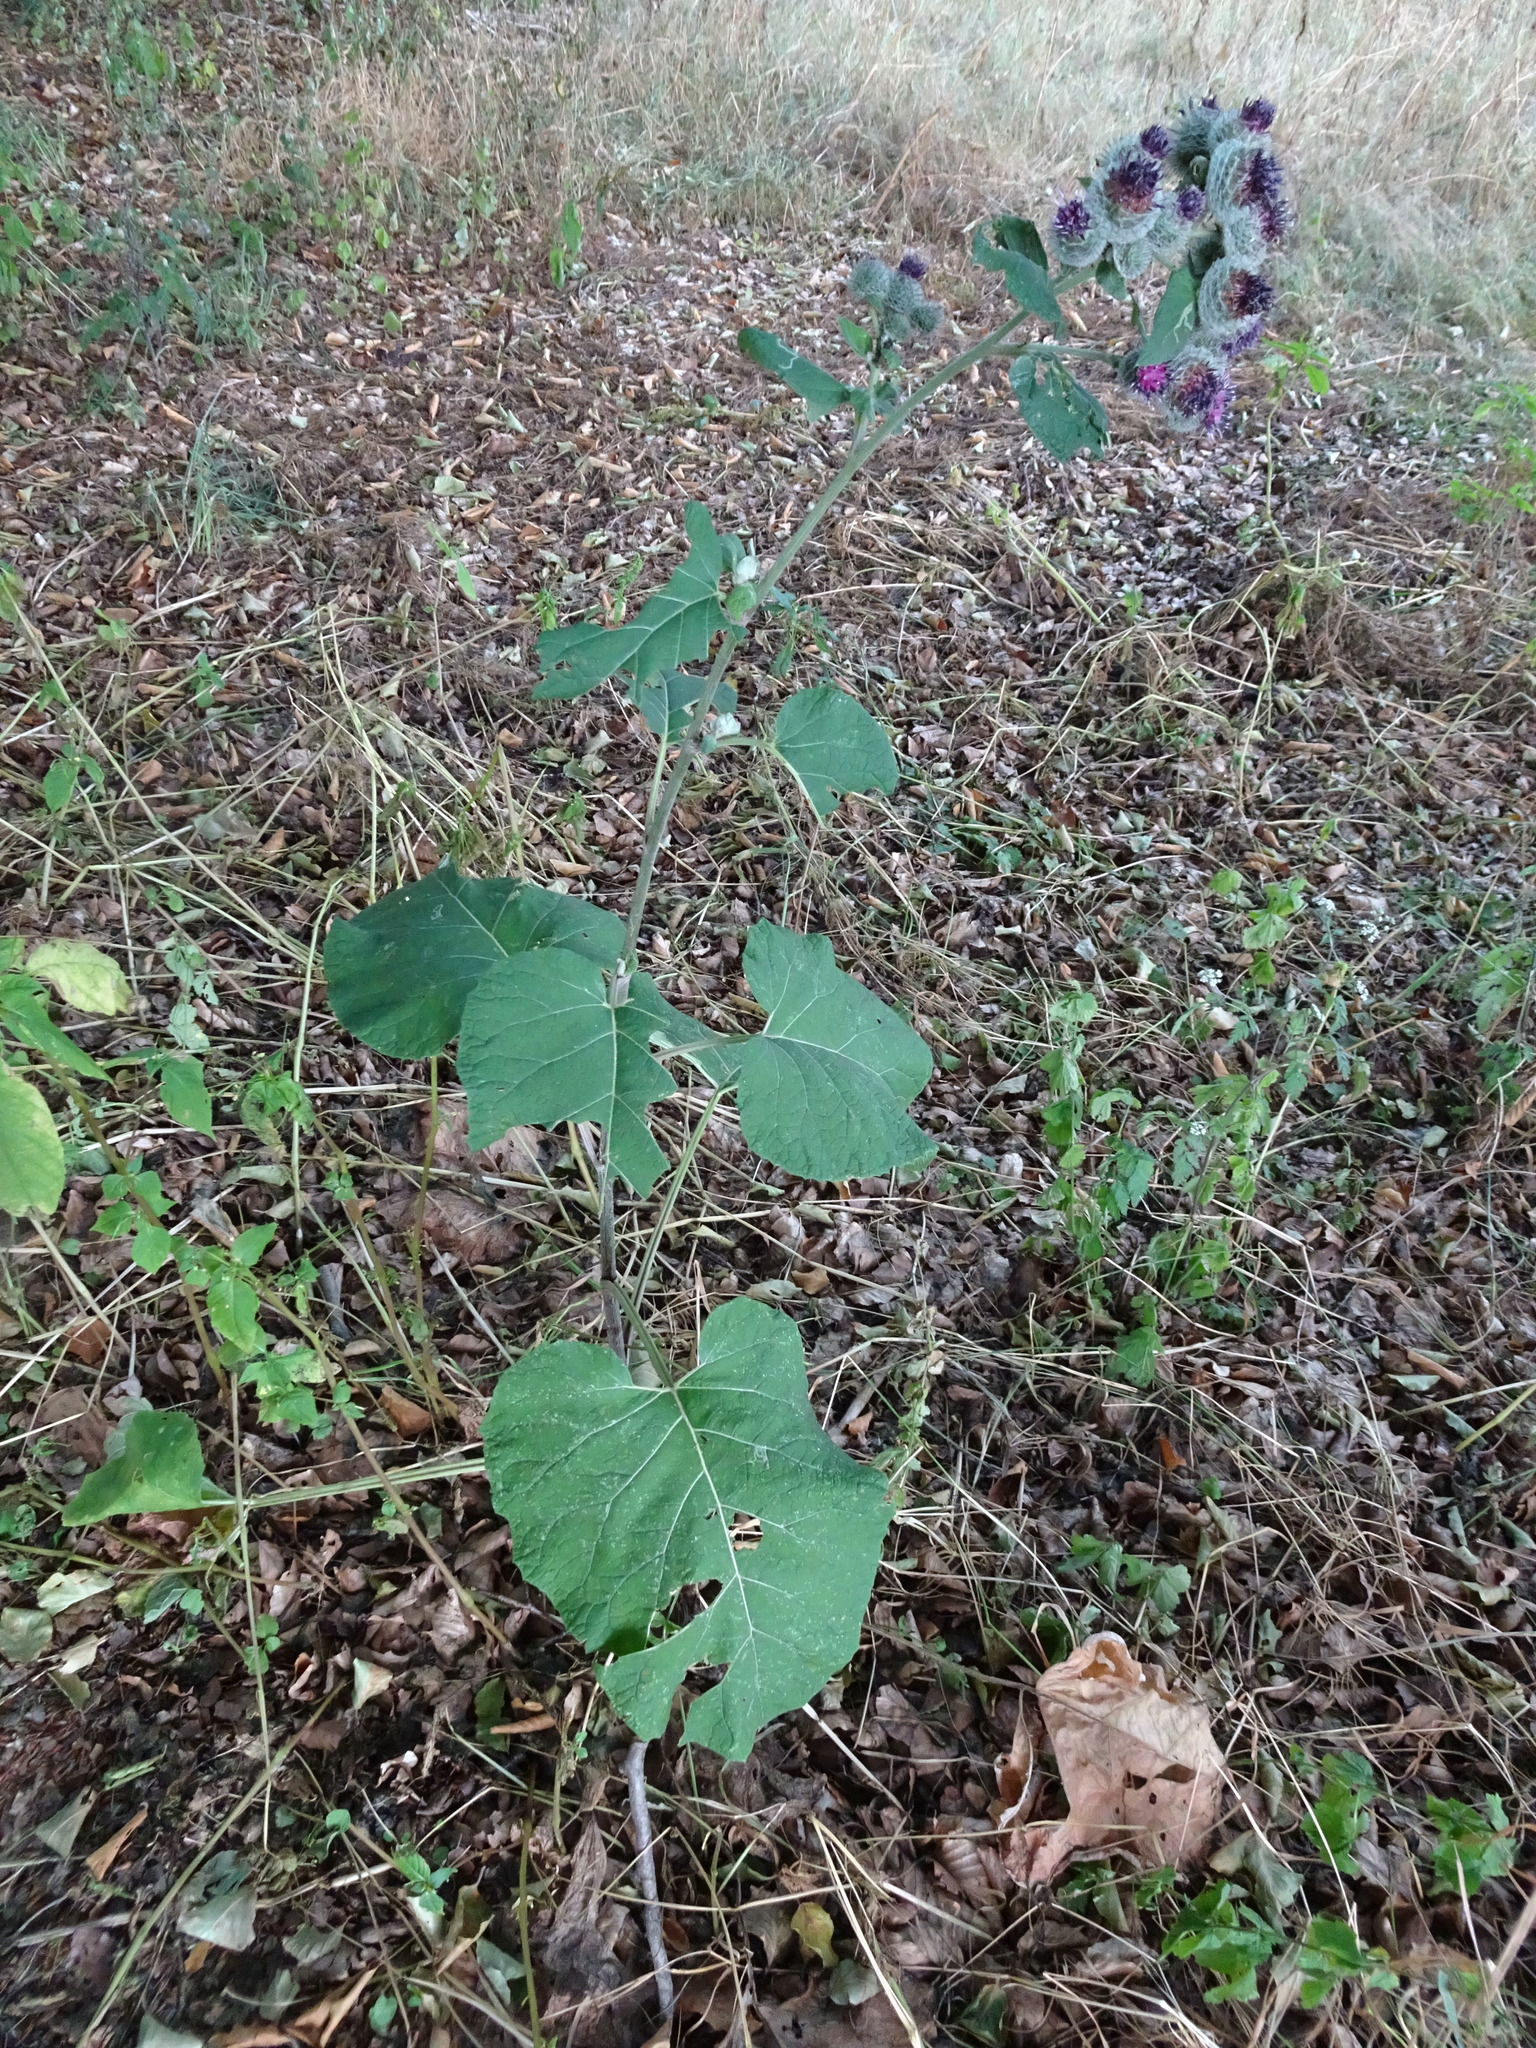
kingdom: Plantae
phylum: Tracheophyta
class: Magnoliopsida
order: Asterales
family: Asteraceae
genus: Arctium
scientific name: Arctium tomentosum
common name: Woolly burdock
